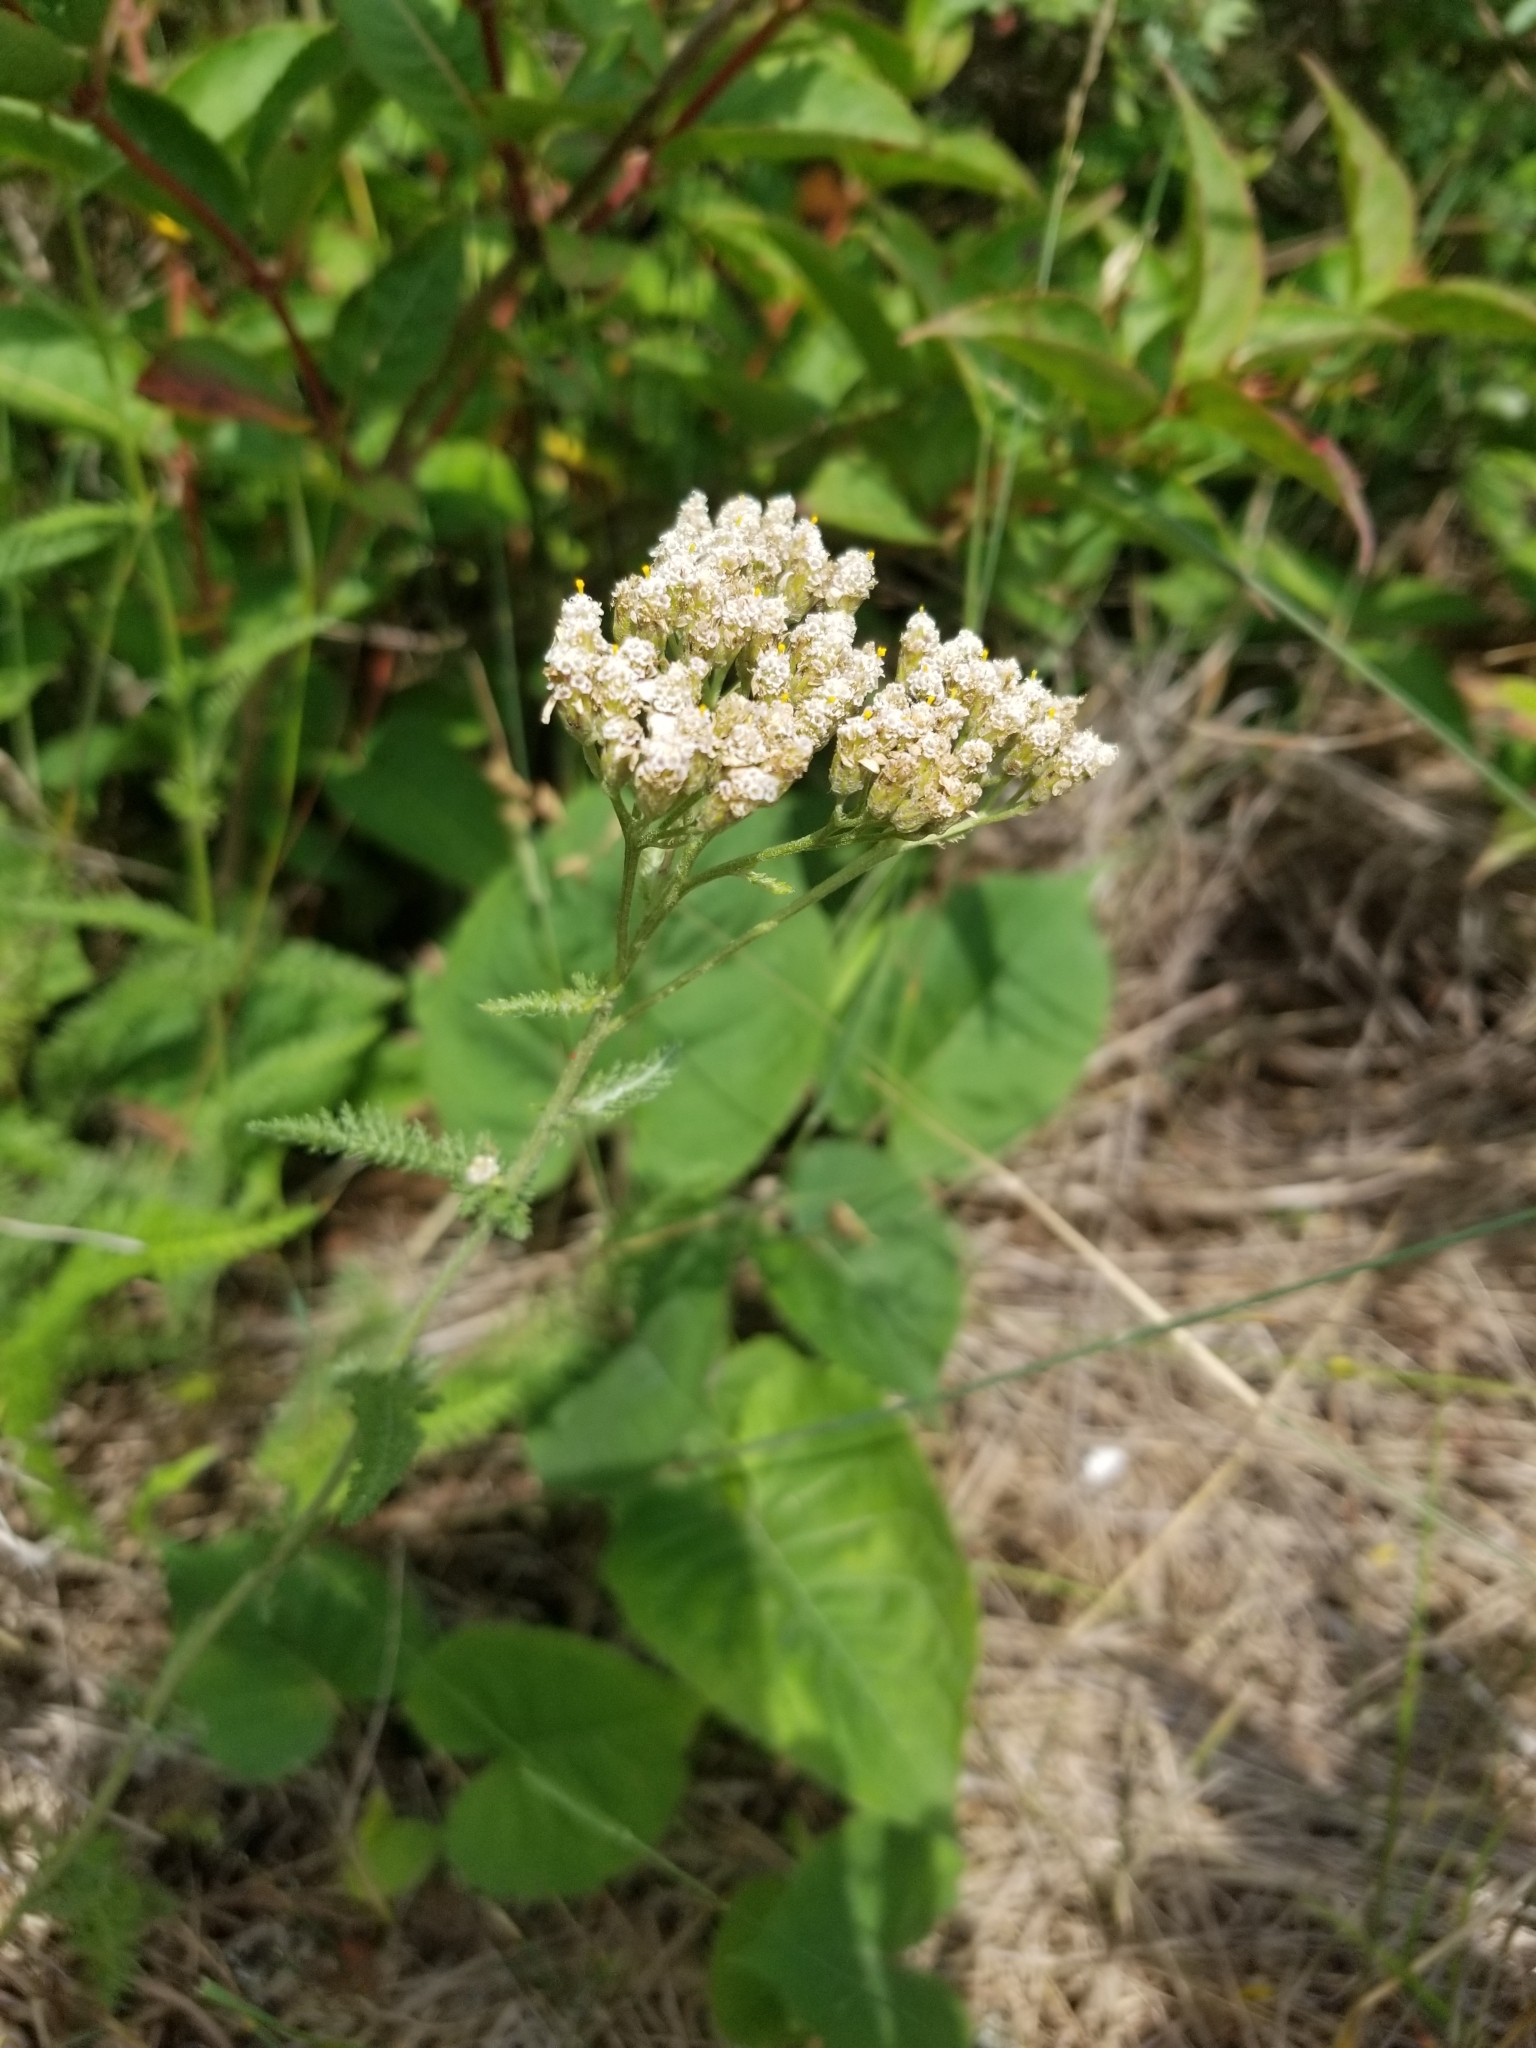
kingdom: Plantae
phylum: Tracheophyta
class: Magnoliopsida
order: Asterales
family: Asteraceae
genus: Achillea
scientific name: Achillea millefolium
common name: Yarrow
